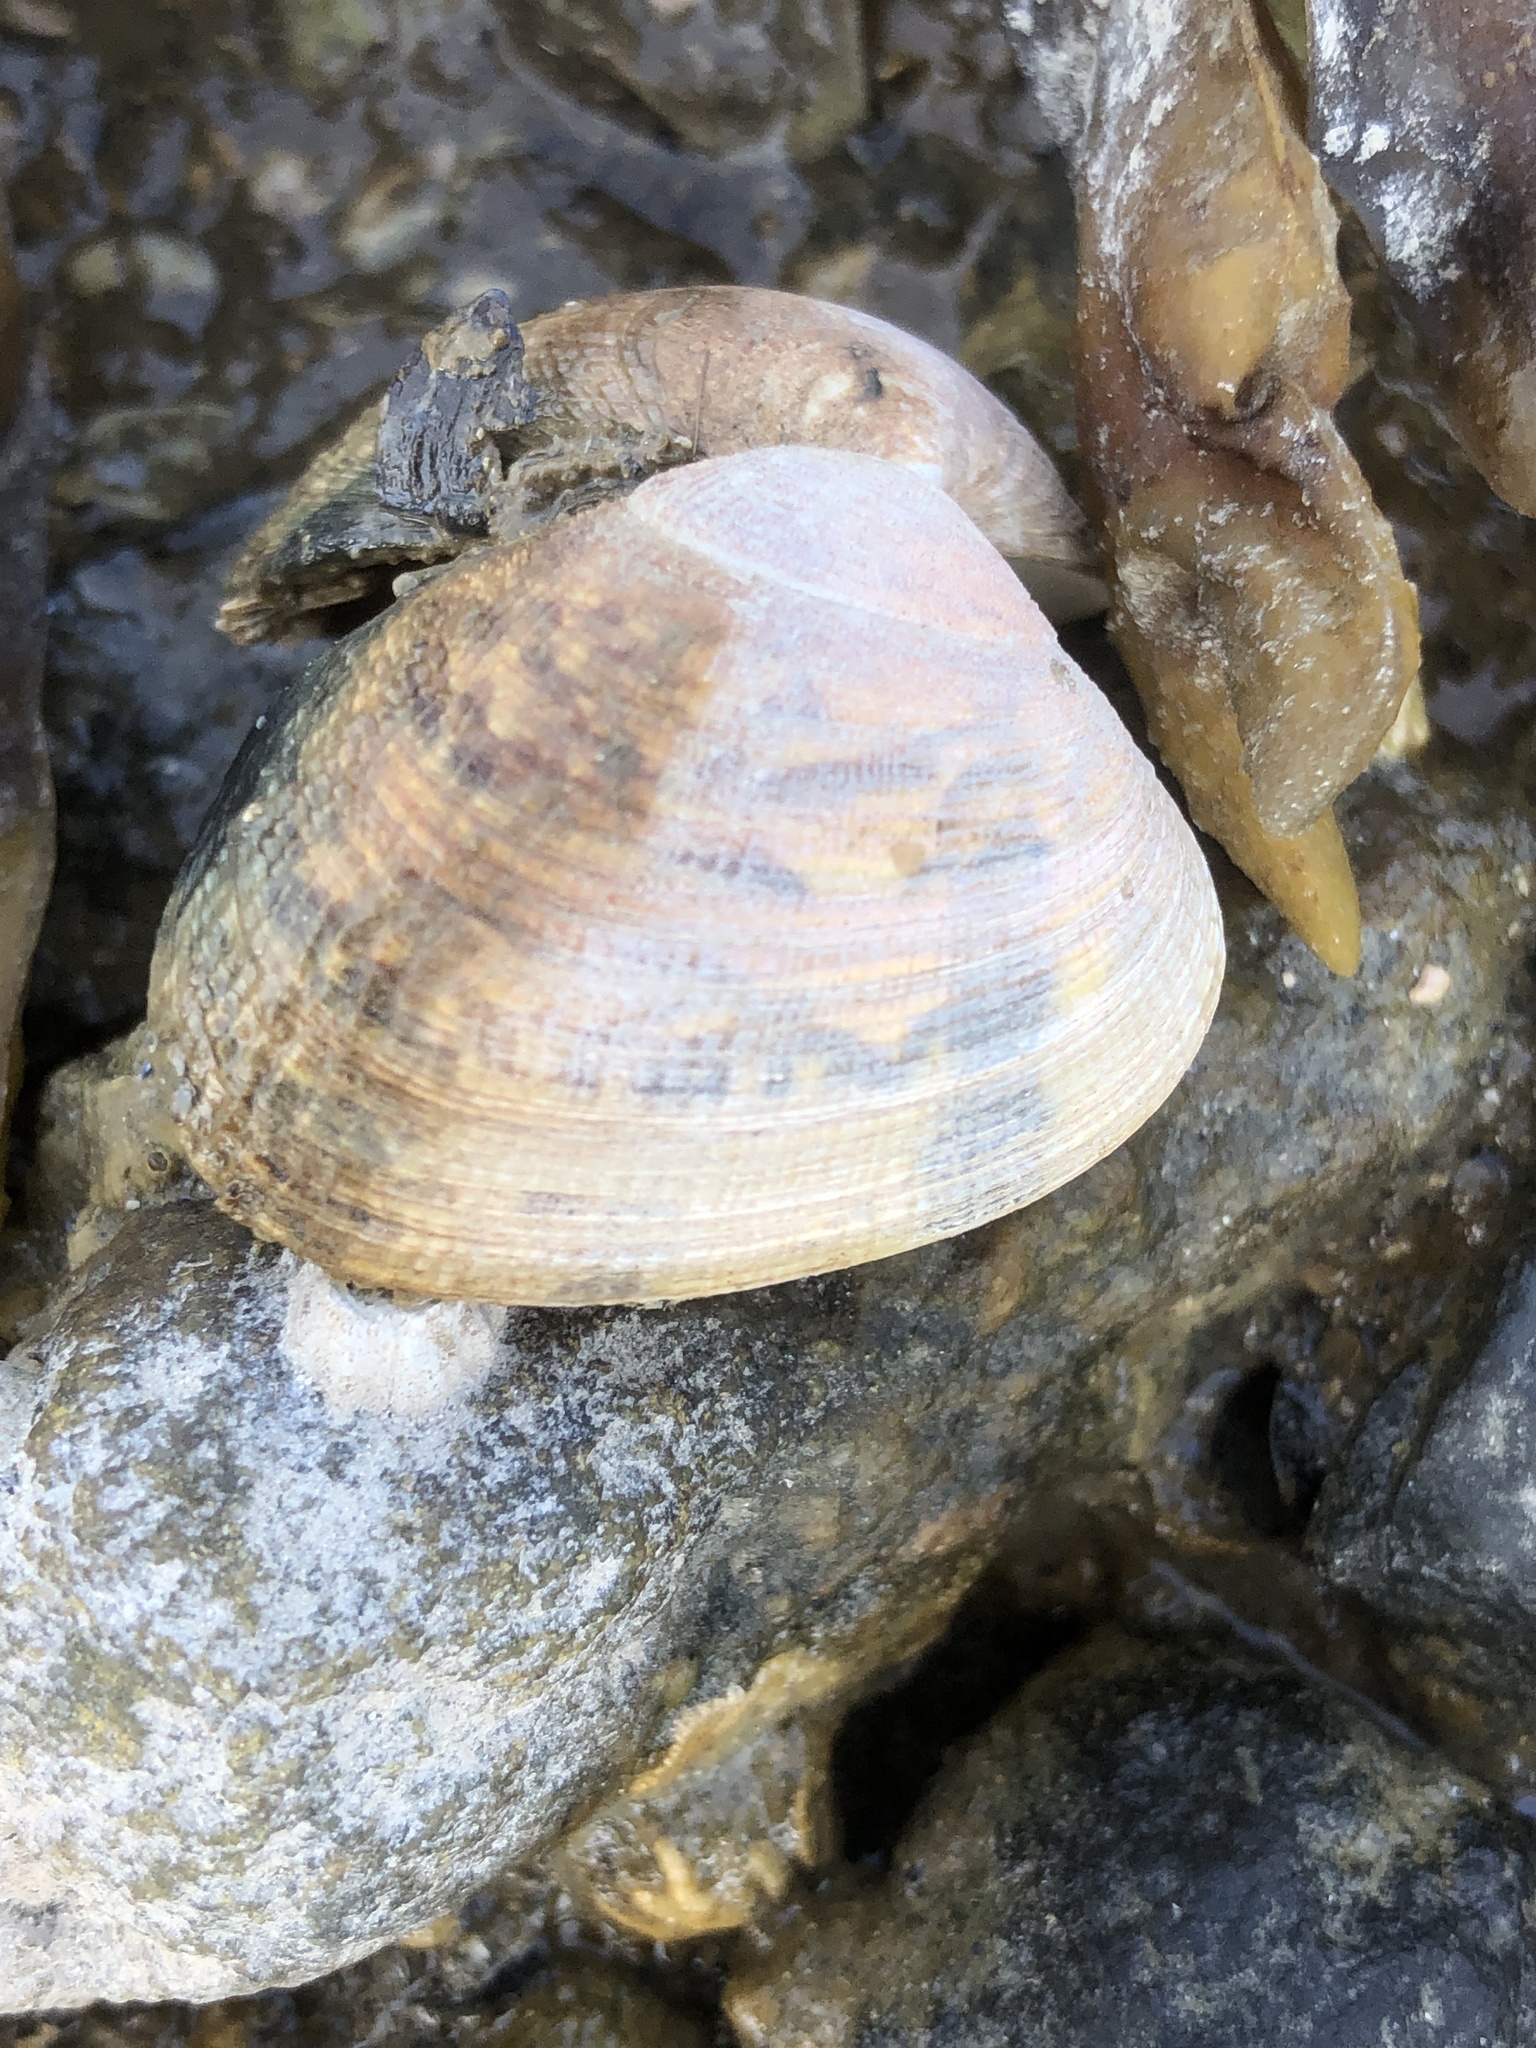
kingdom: Animalia
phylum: Mollusca
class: Bivalvia
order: Venerida
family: Veneridae
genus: Ruditapes
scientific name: Ruditapes philippinarum
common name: Manila clam
